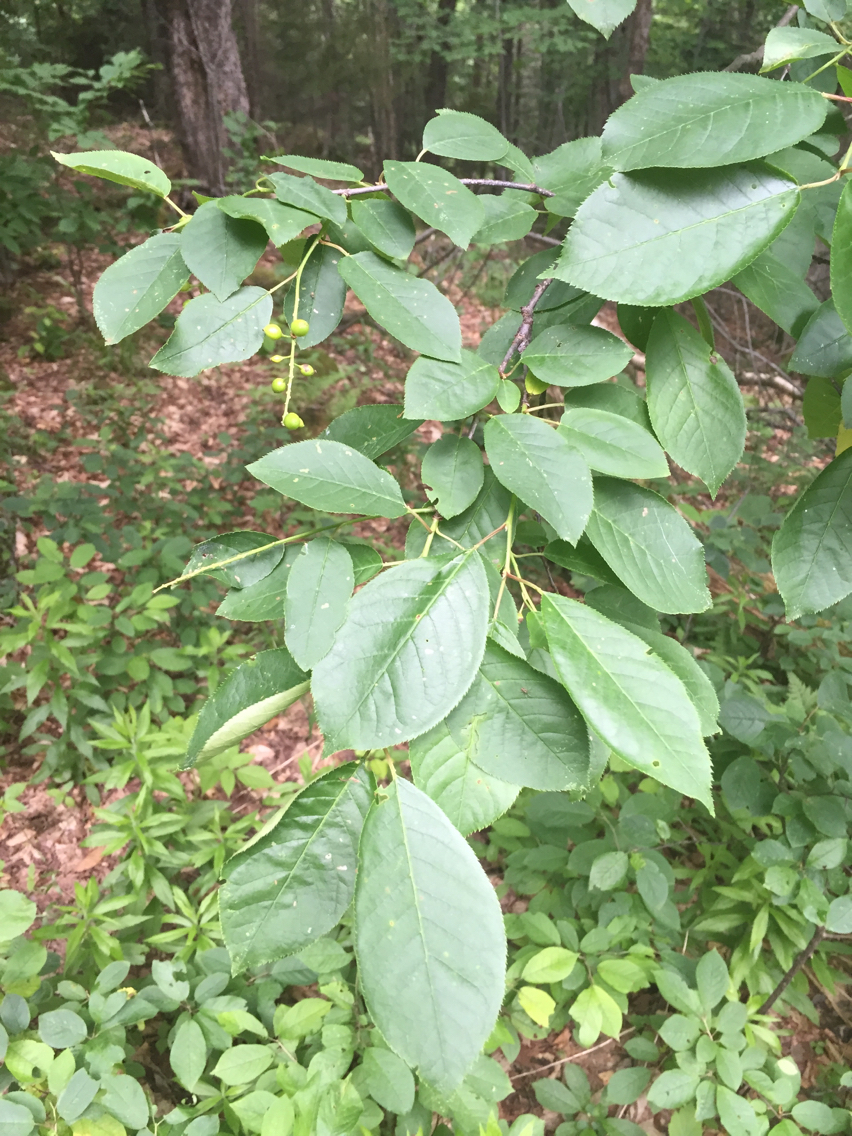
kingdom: Plantae
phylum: Tracheophyta
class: Magnoliopsida
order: Rosales
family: Rosaceae
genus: Prunus
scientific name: Prunus virginiana
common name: Chokecherry
